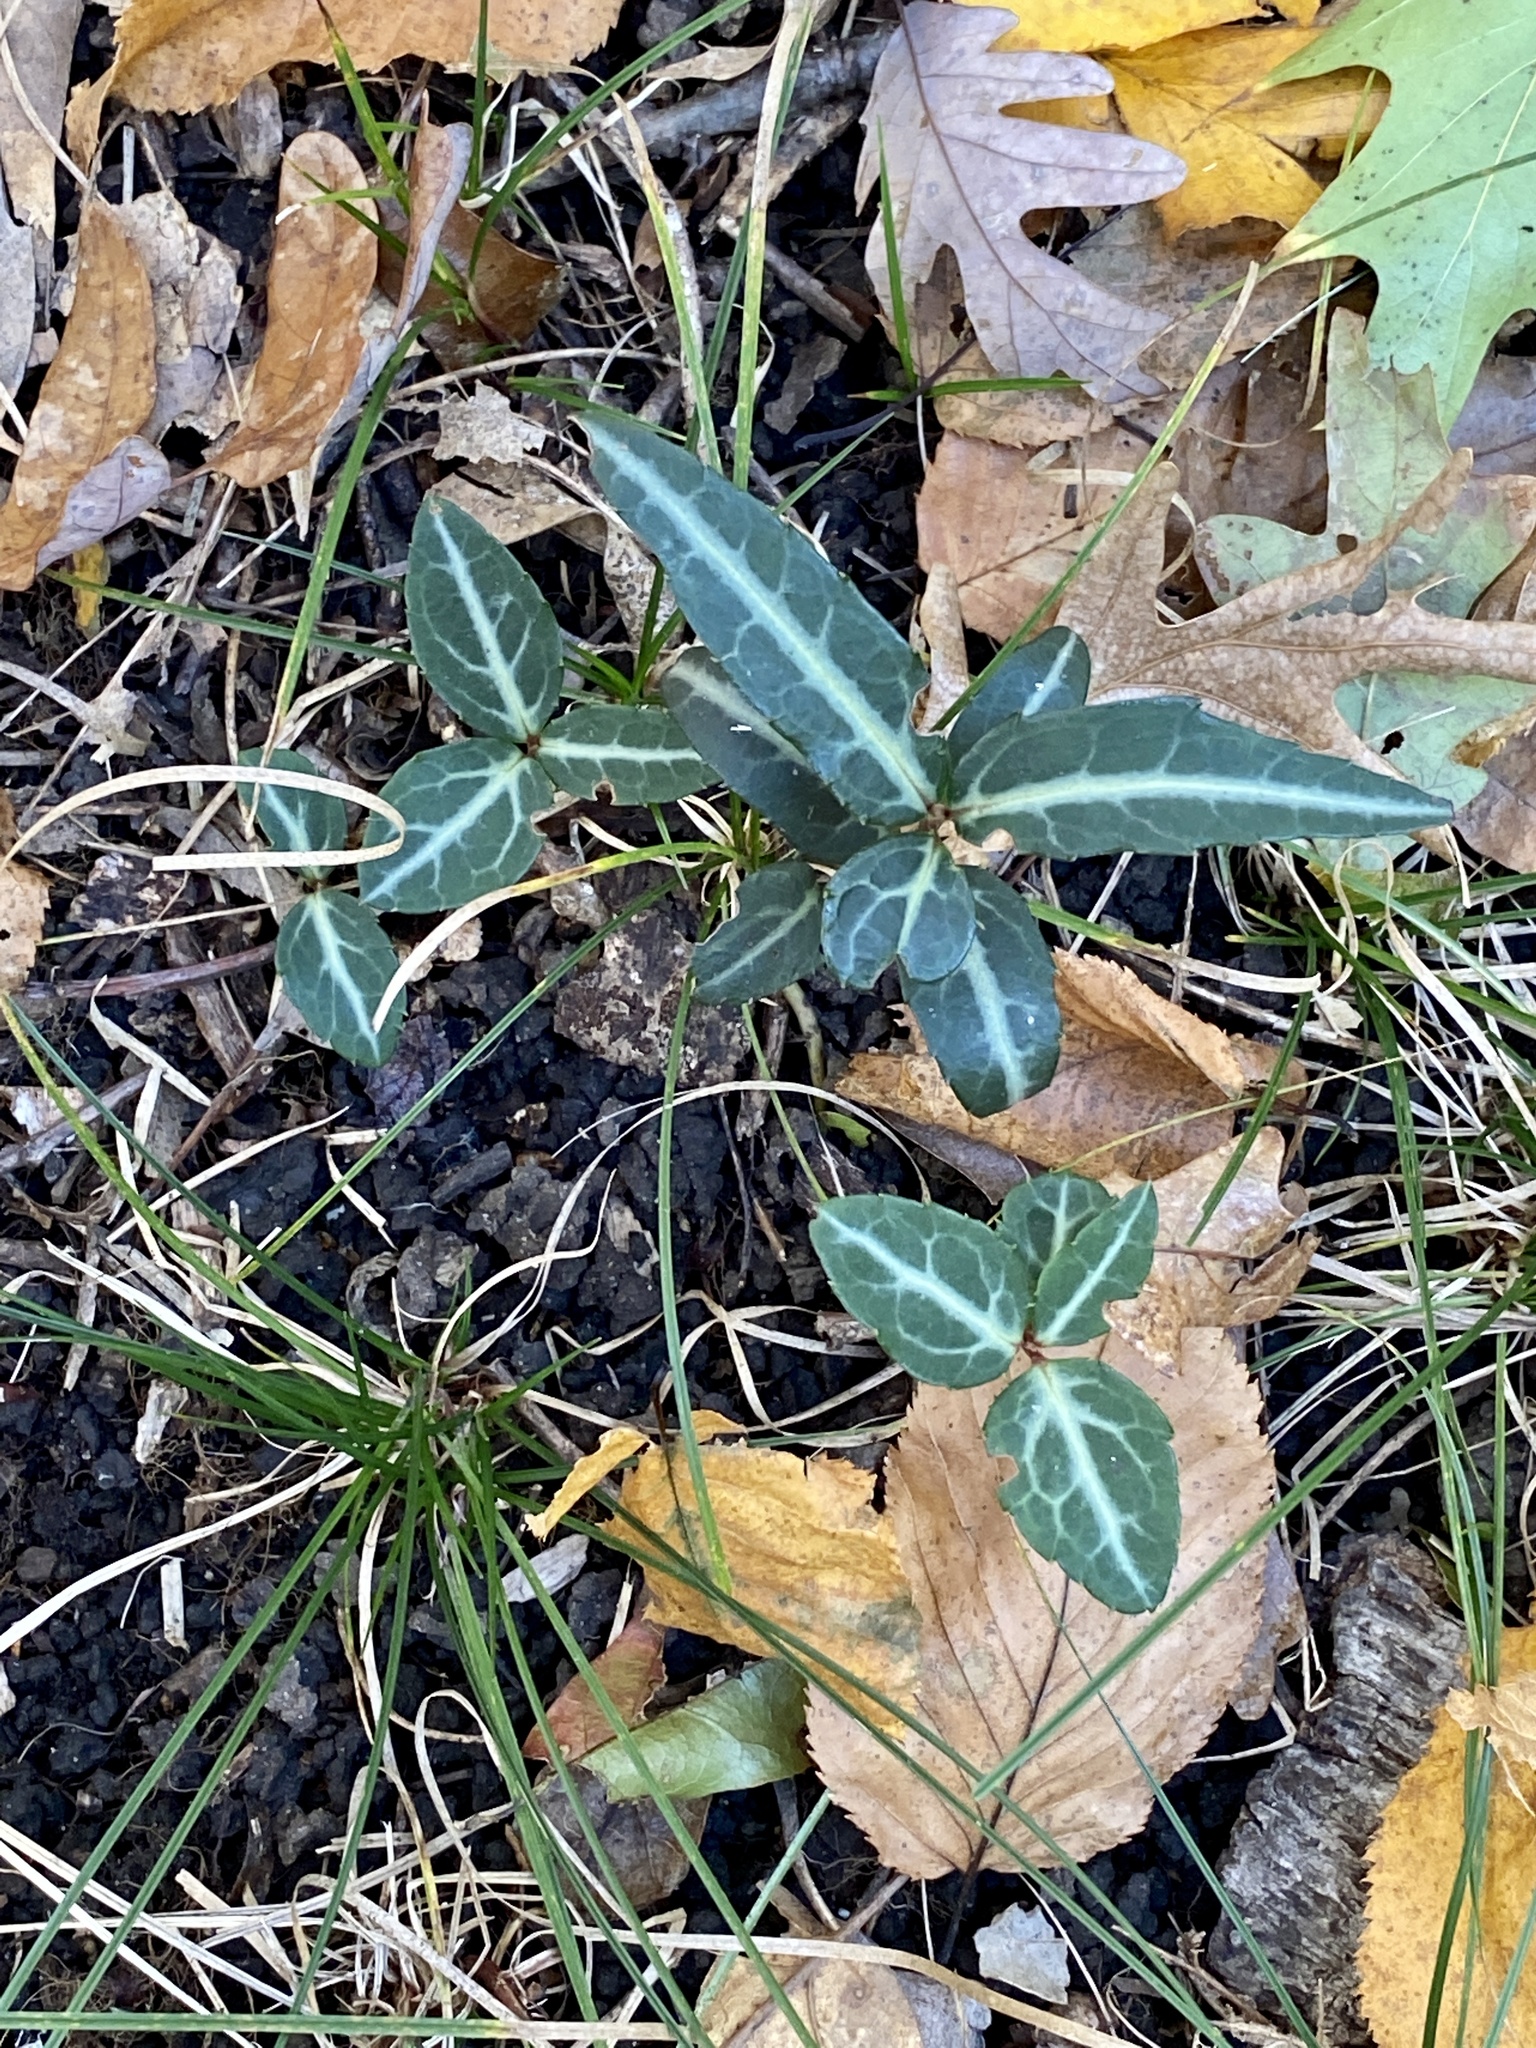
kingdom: Plantae
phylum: Tracheophyta
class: Magnoliopsida
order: Ericales
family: Ericaceae
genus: Chimaphila
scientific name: Chimaphila maculata
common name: Spotted pipsissewa
